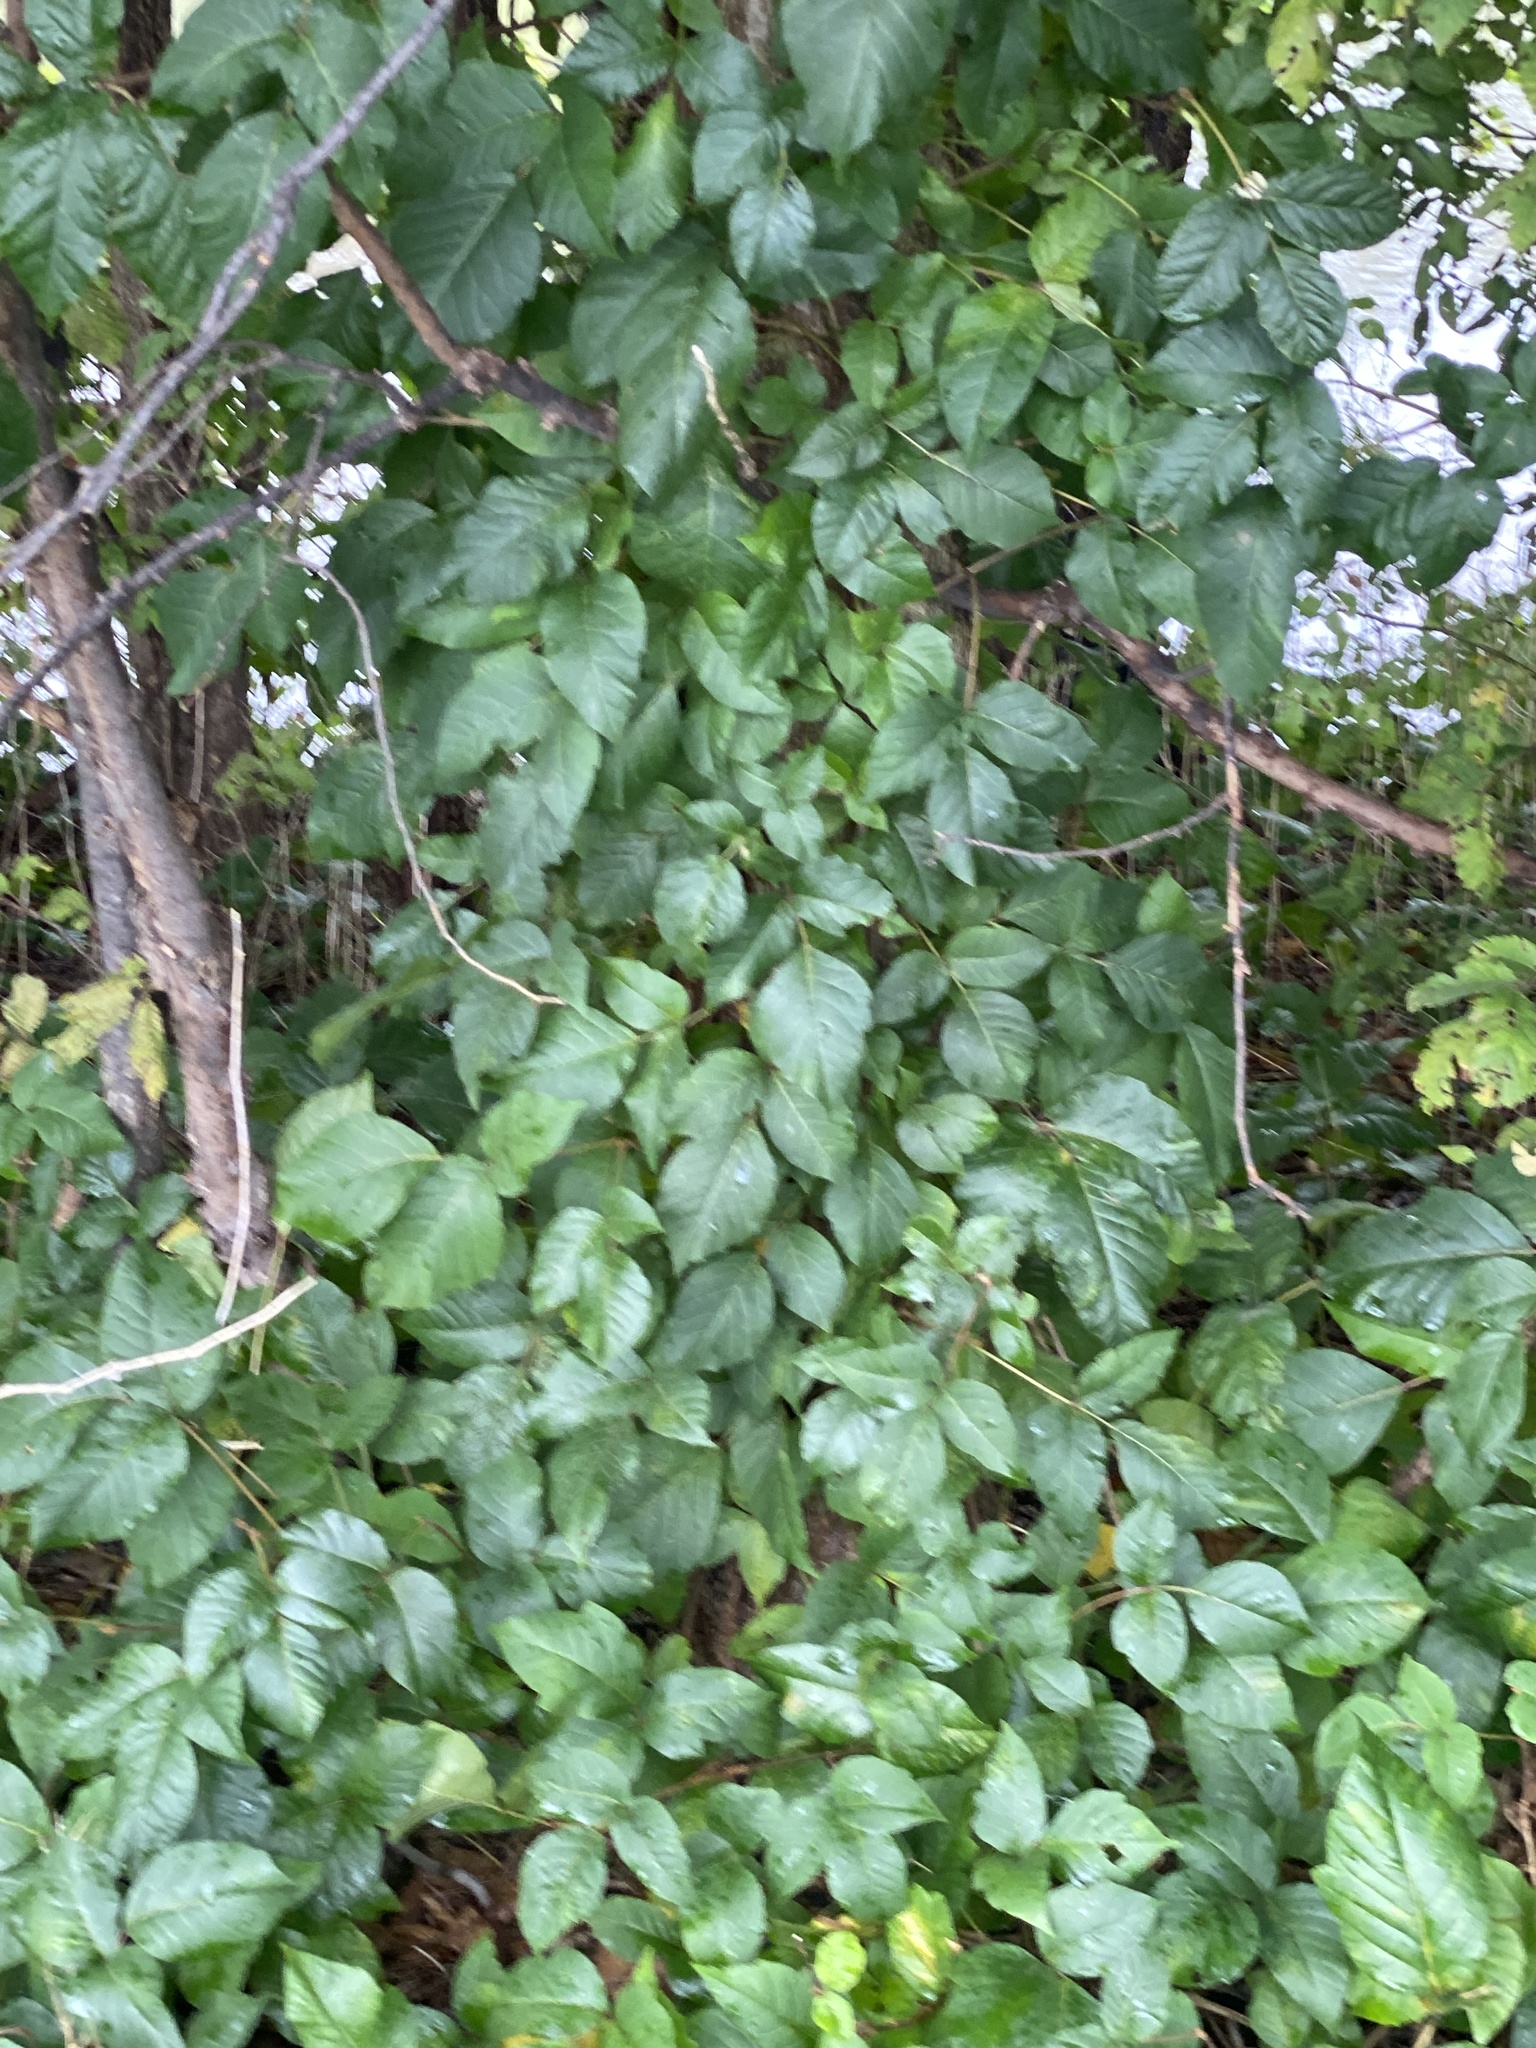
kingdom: Plantae
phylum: Tracheophyta
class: Magnoliopsida
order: Sapindales
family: Anacardiaceae
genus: Toxicodendron
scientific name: Toxicodendron radicans
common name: Poison ivy
